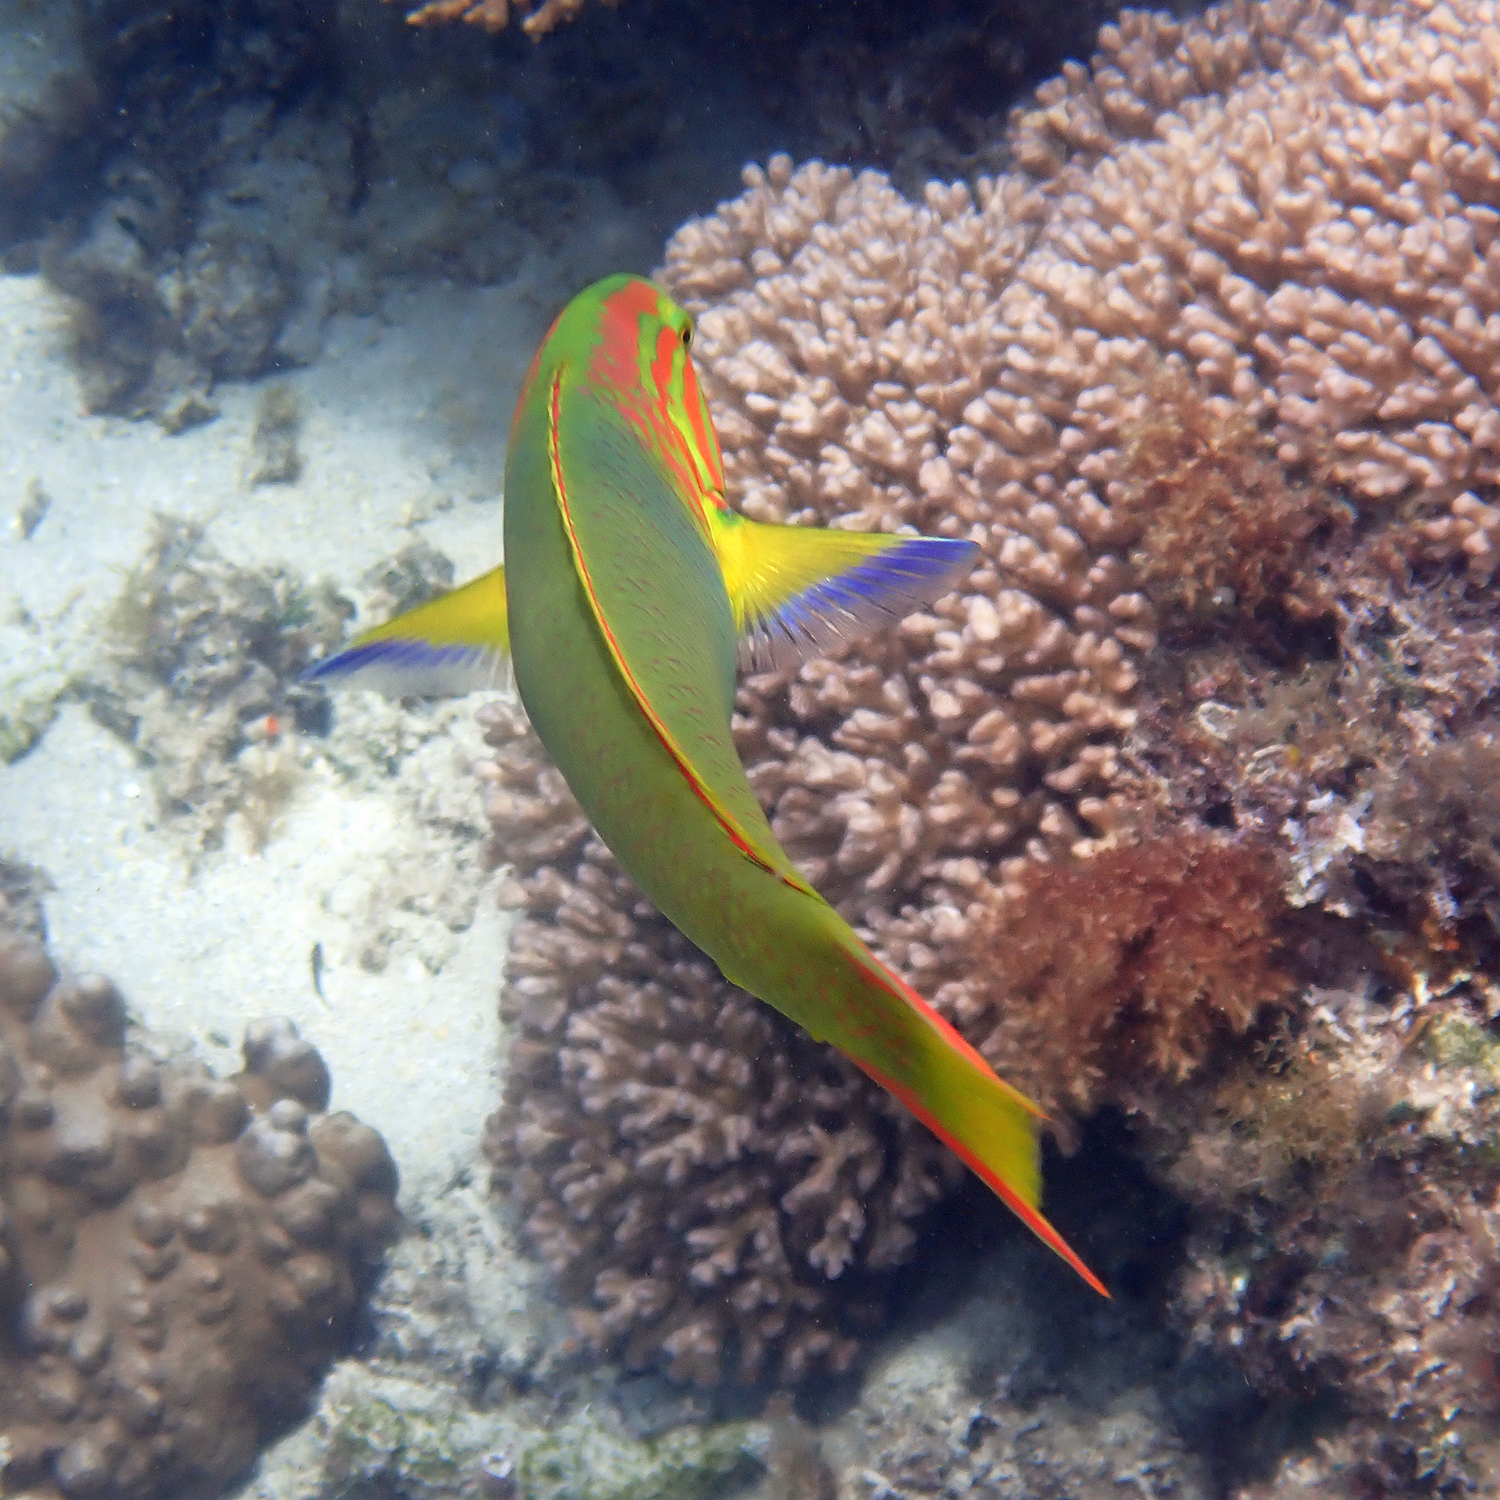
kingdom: Animalia
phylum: Chordata
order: Perciformes
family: Labridae
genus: Thalassoma
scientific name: Thalassoma lutescens
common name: Green moon wrasse
